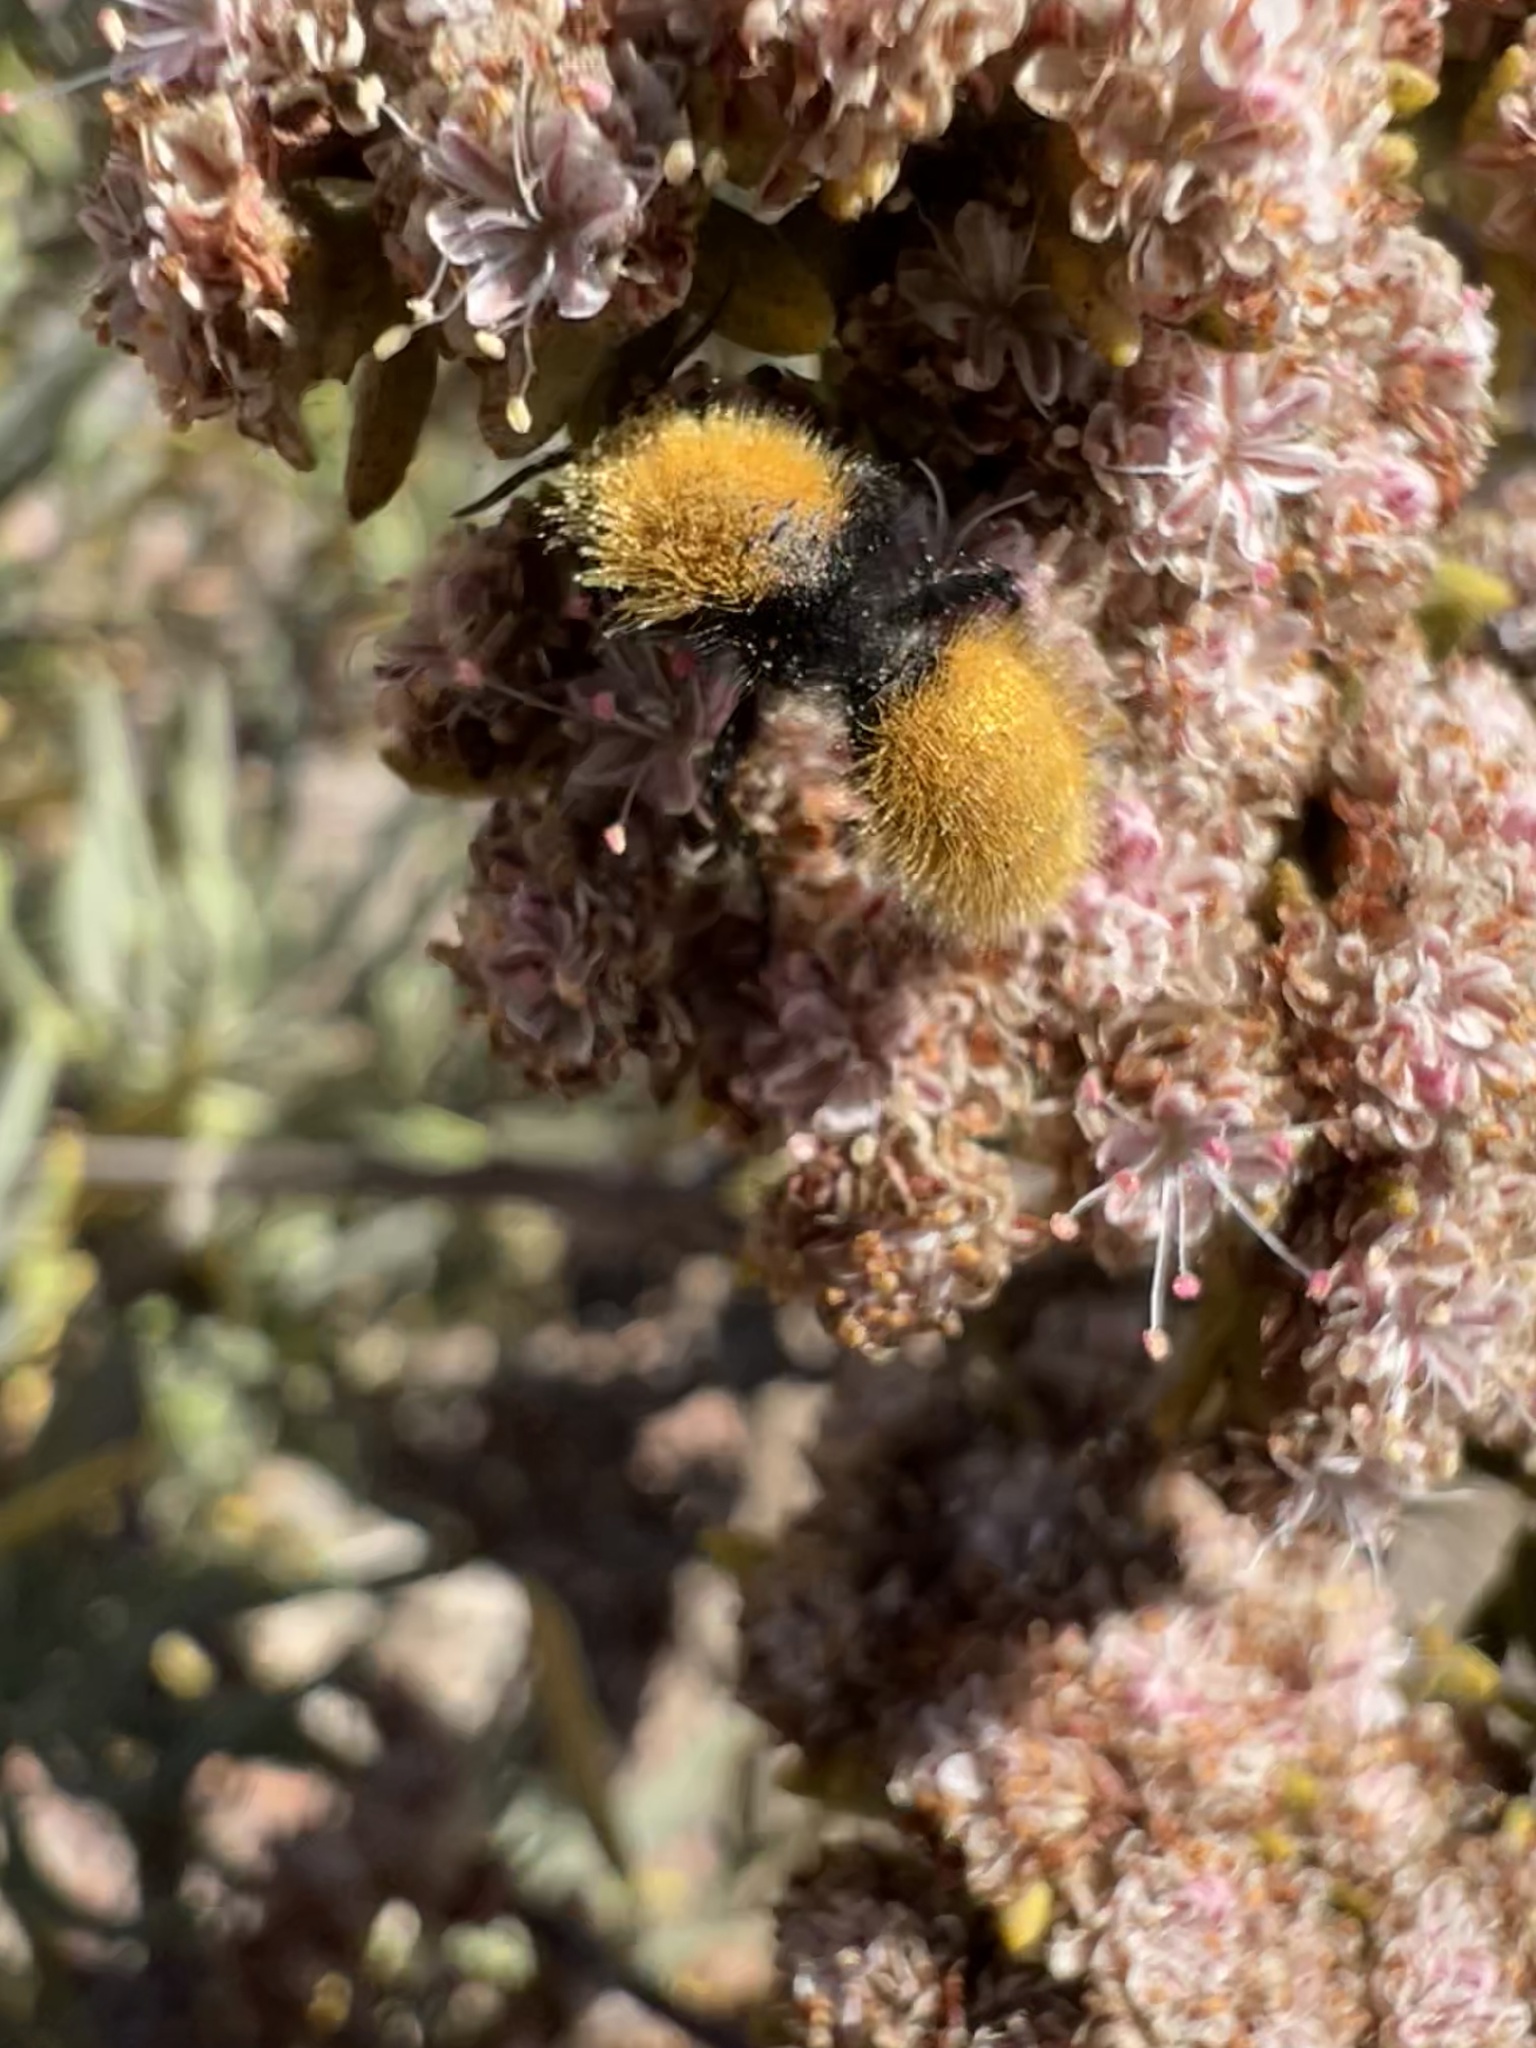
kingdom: Animalia
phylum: Arthropoda
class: Insecta
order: Hymenoptera
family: Mutillidae
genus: Dasymutilla
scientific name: Dasymutilla
